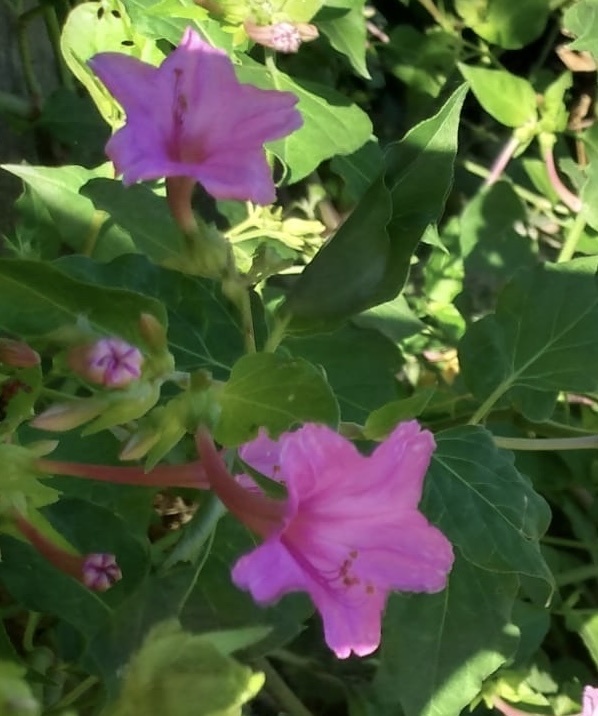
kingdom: Plantae
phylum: Tracheophyta
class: Magnoliopsida
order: Caryophyllales
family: Nyctaginaceae
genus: Mirabilis
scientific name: Mirabilis jalapa
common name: Marvel-of-peru
